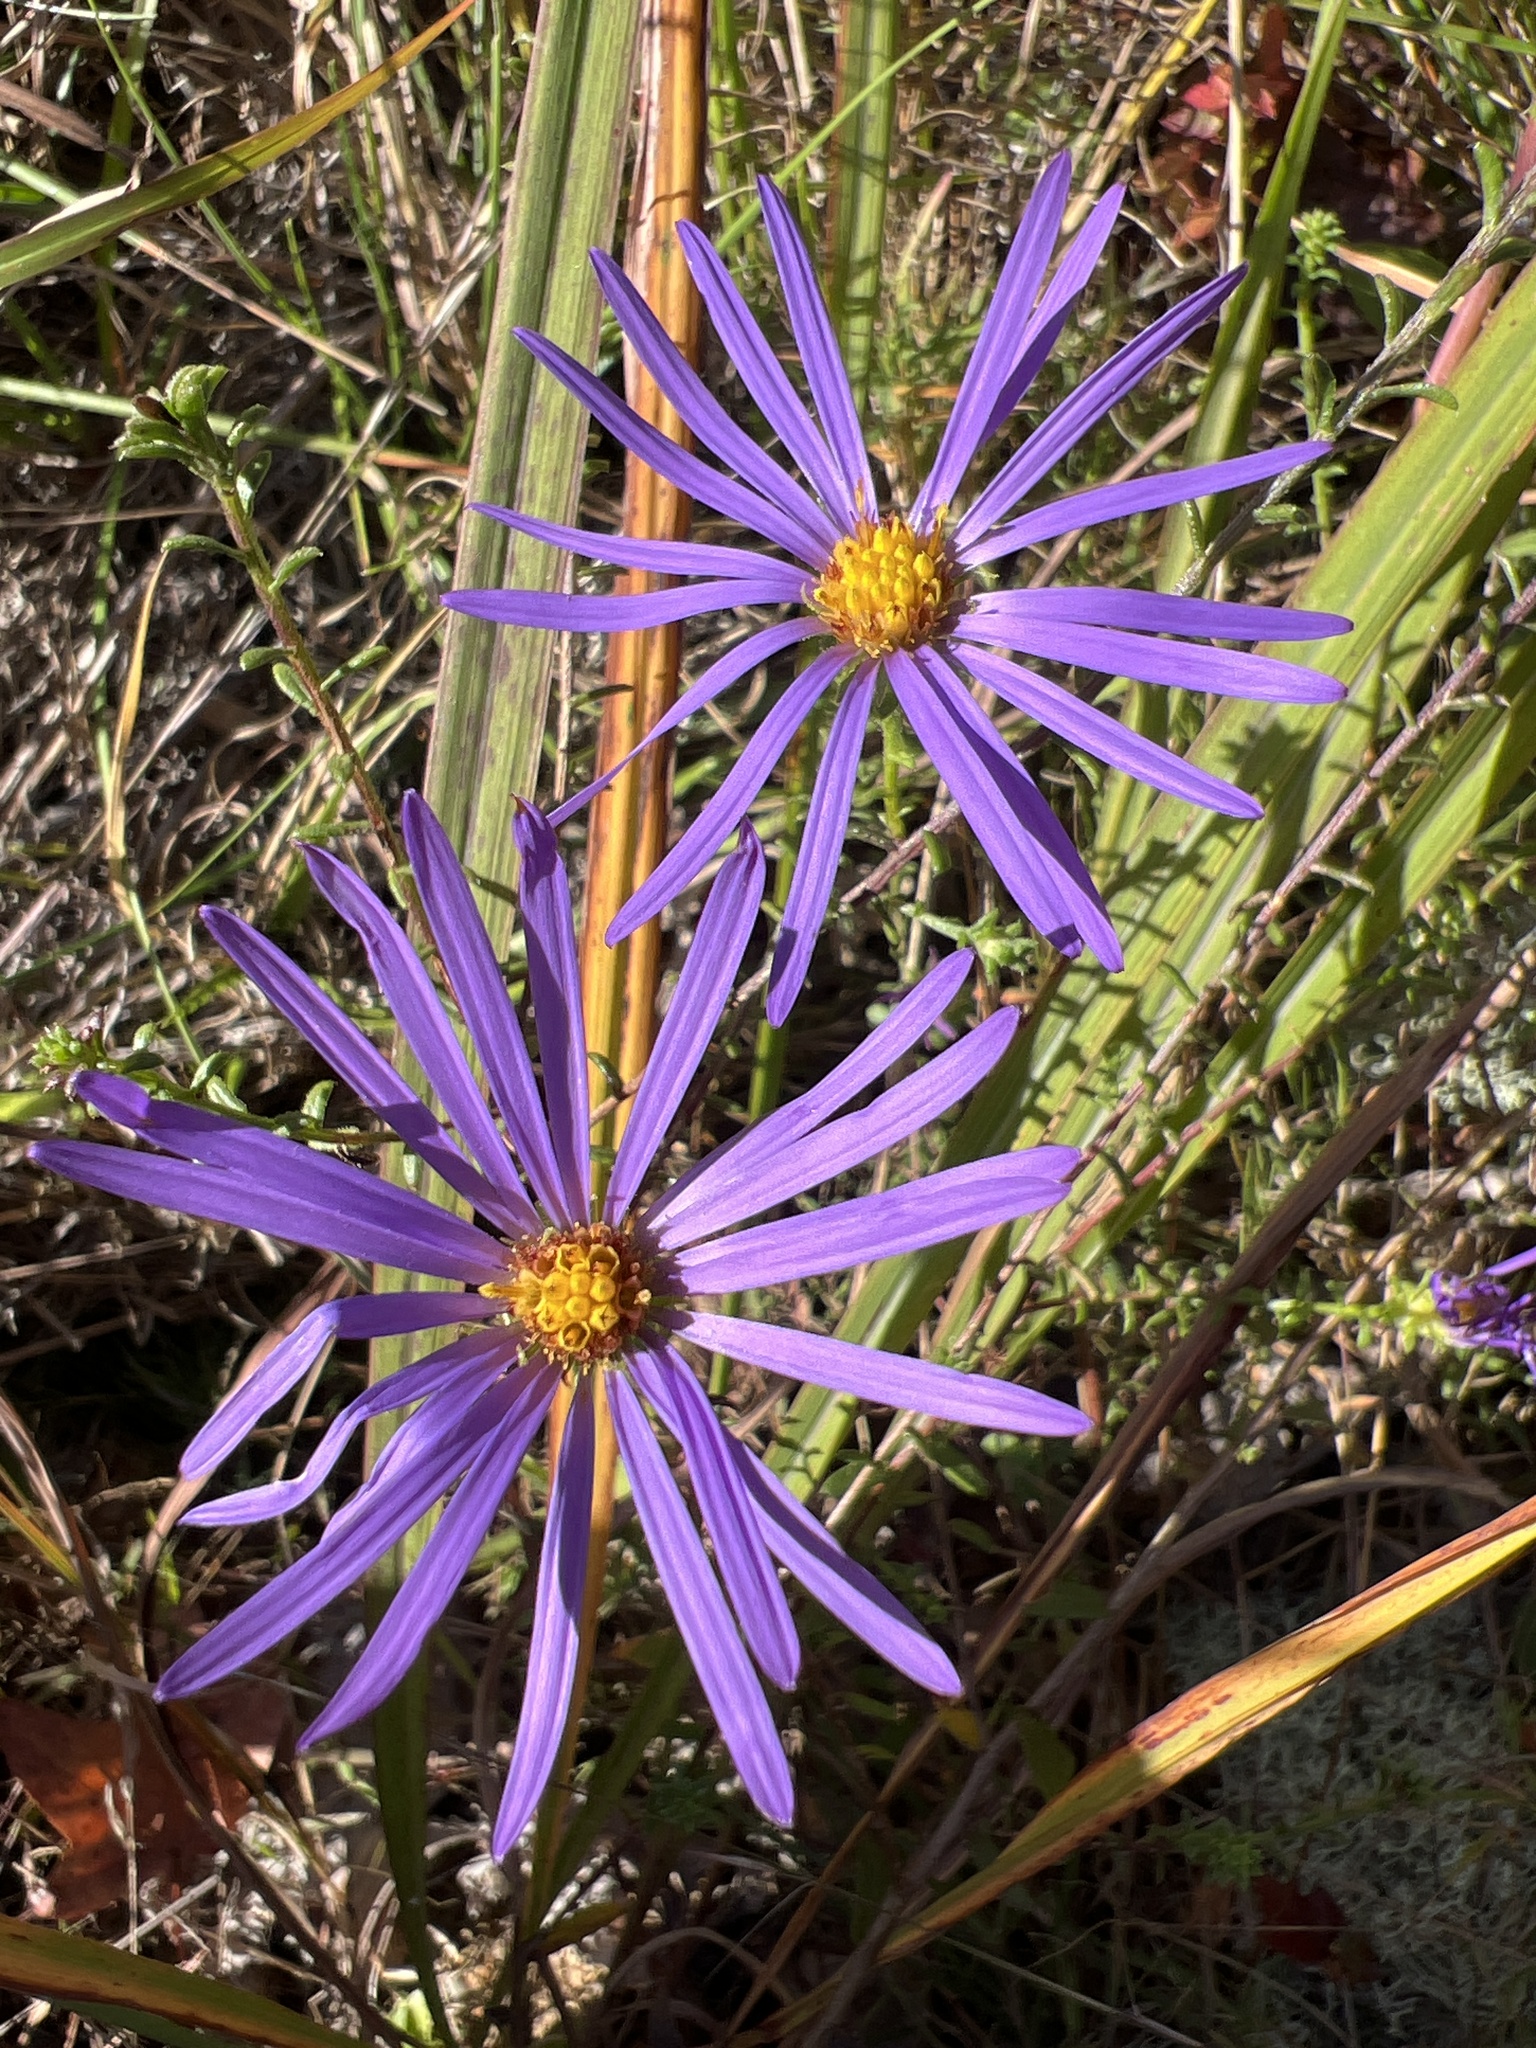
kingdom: Plantae
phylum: Tracheophyta
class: Magnoliopsida
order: Asterales
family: Asteraceae
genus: Symphyotrichum
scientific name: Symphyotrichum grandiflorum
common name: Big-head aster
